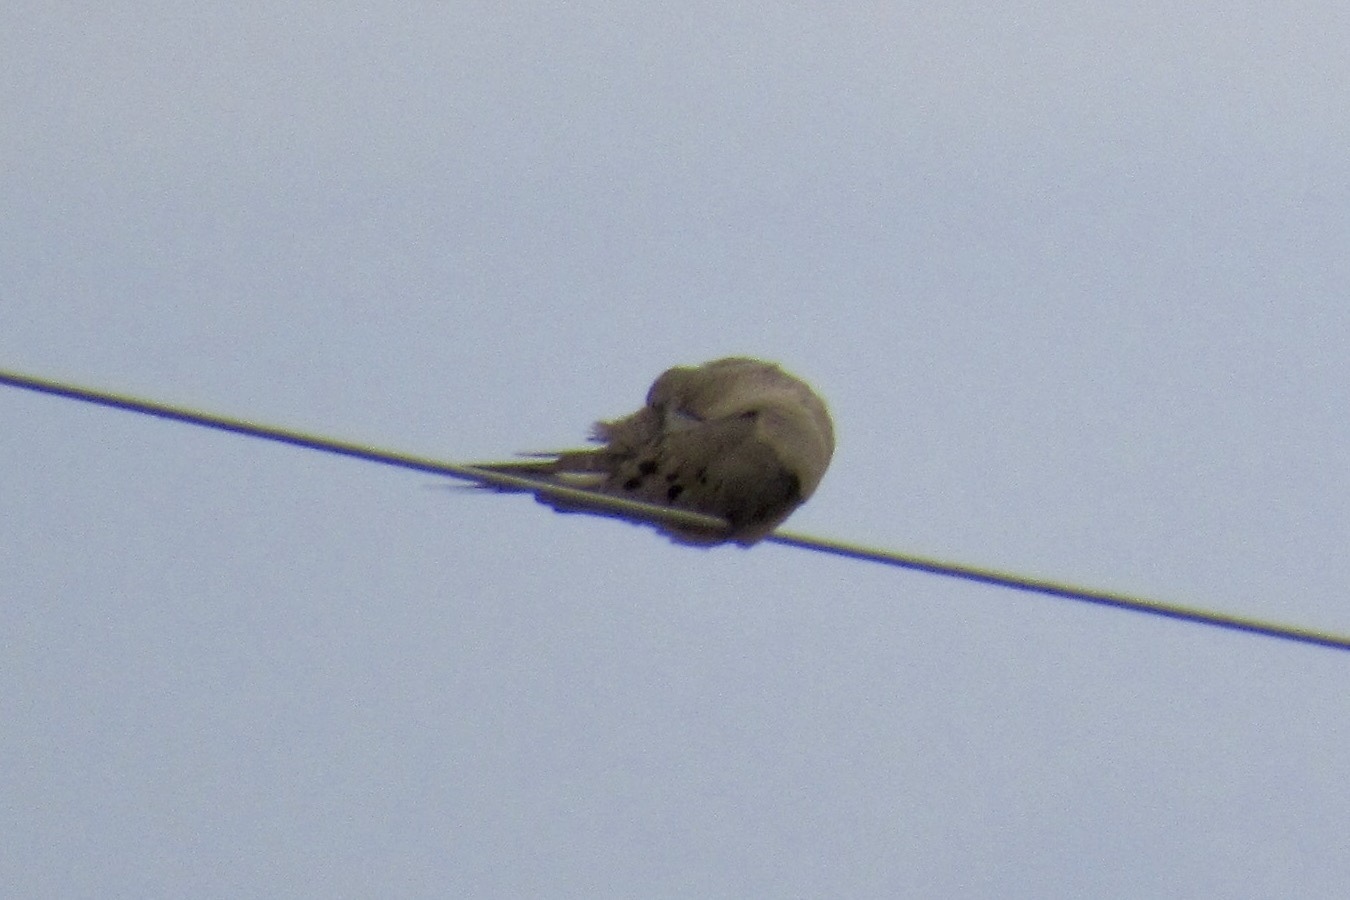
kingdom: Animalia
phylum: Chordata
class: Aves
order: Columbiformes
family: Columbidae
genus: Zenaida
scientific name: Zenaida macroura
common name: Mourning dove
